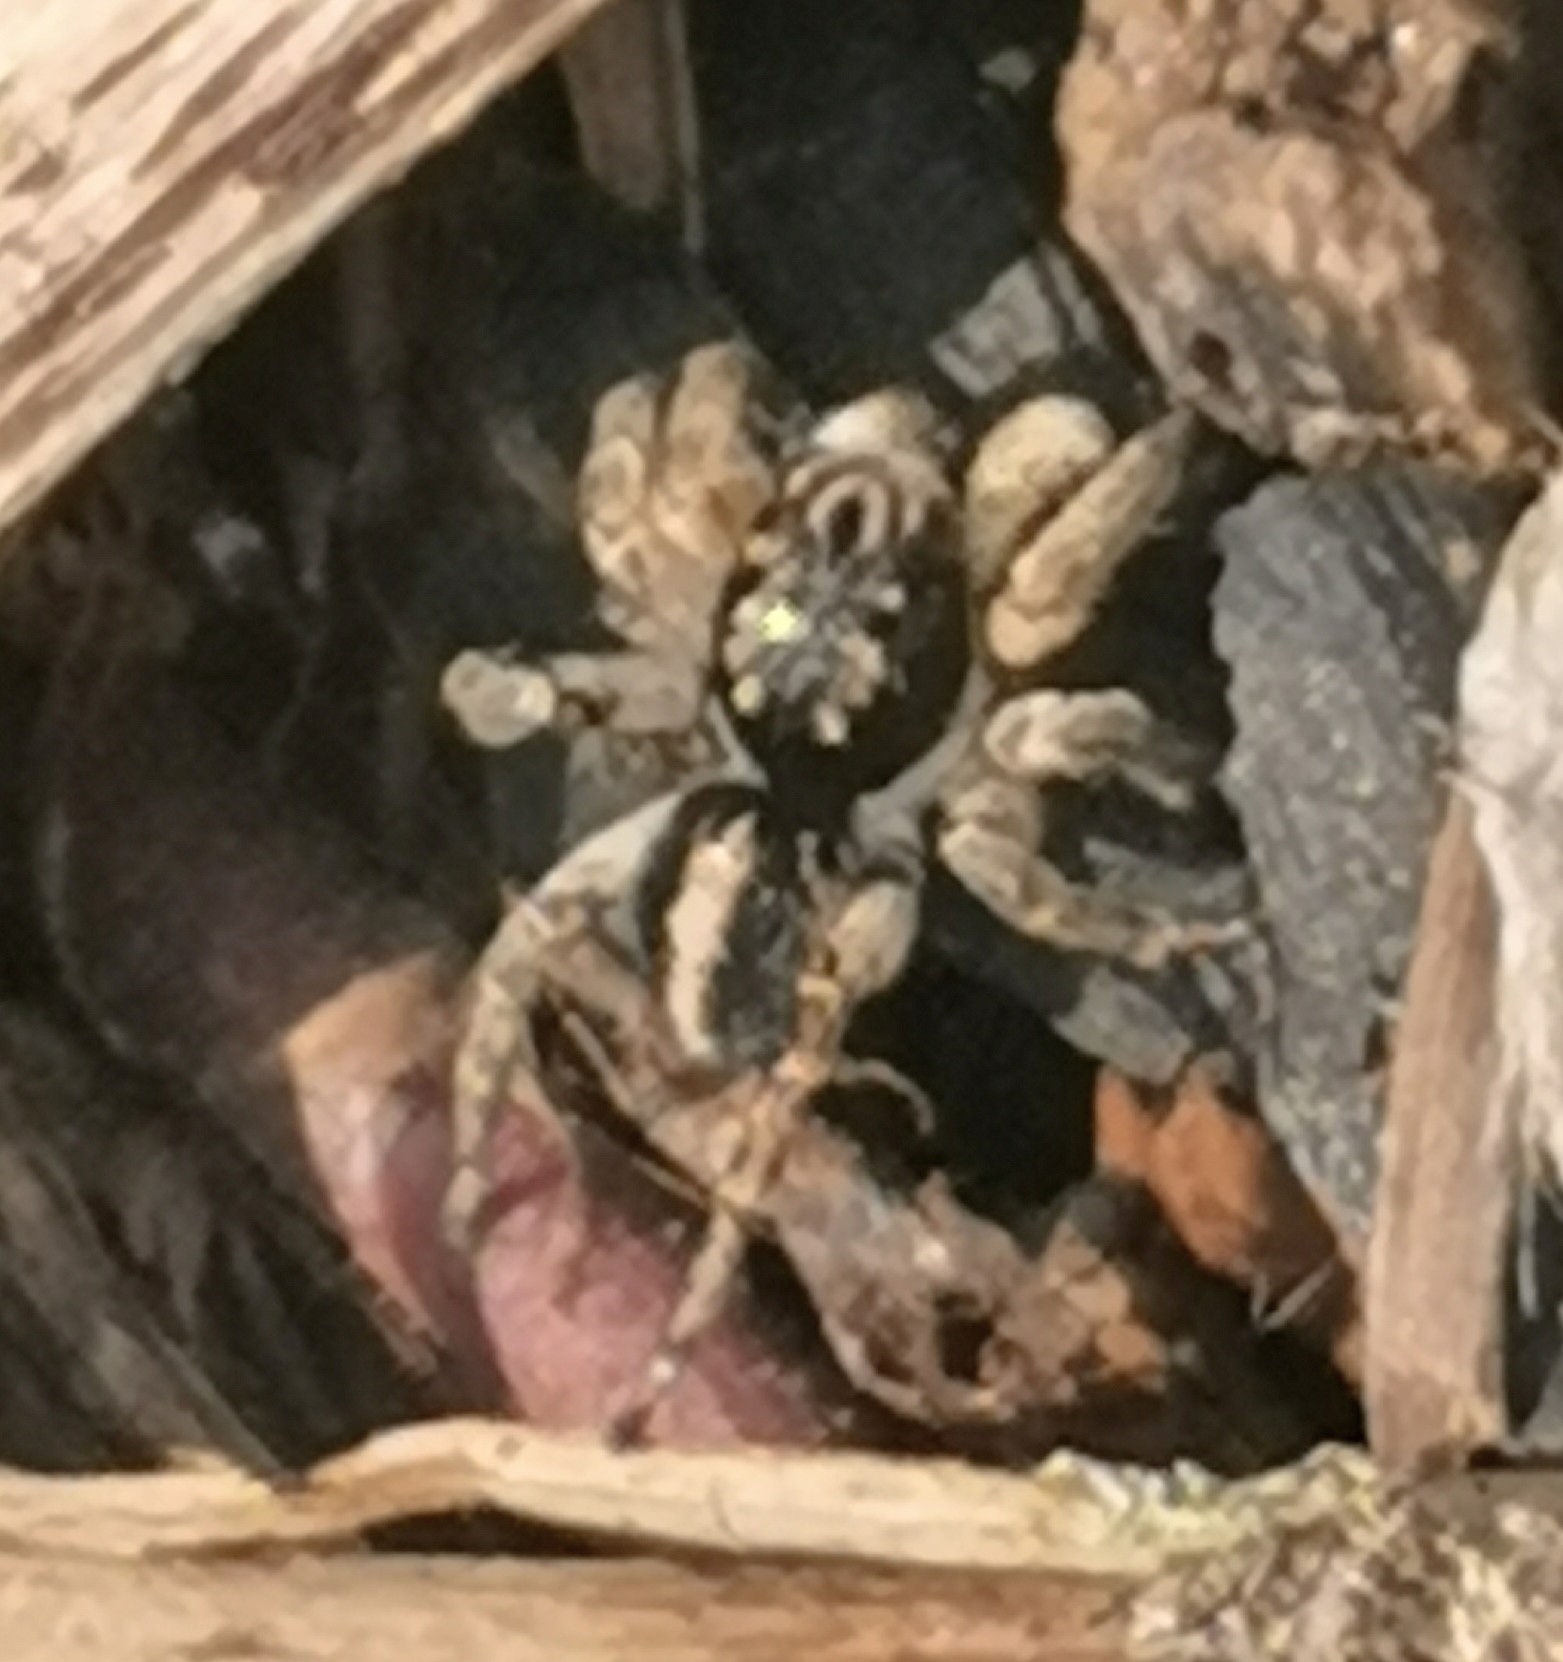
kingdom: Animalia
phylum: Arthropoda
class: Arachnida
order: Araneae
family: Salticidae
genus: Aelurillus
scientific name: Aelurillus v-insignitus
